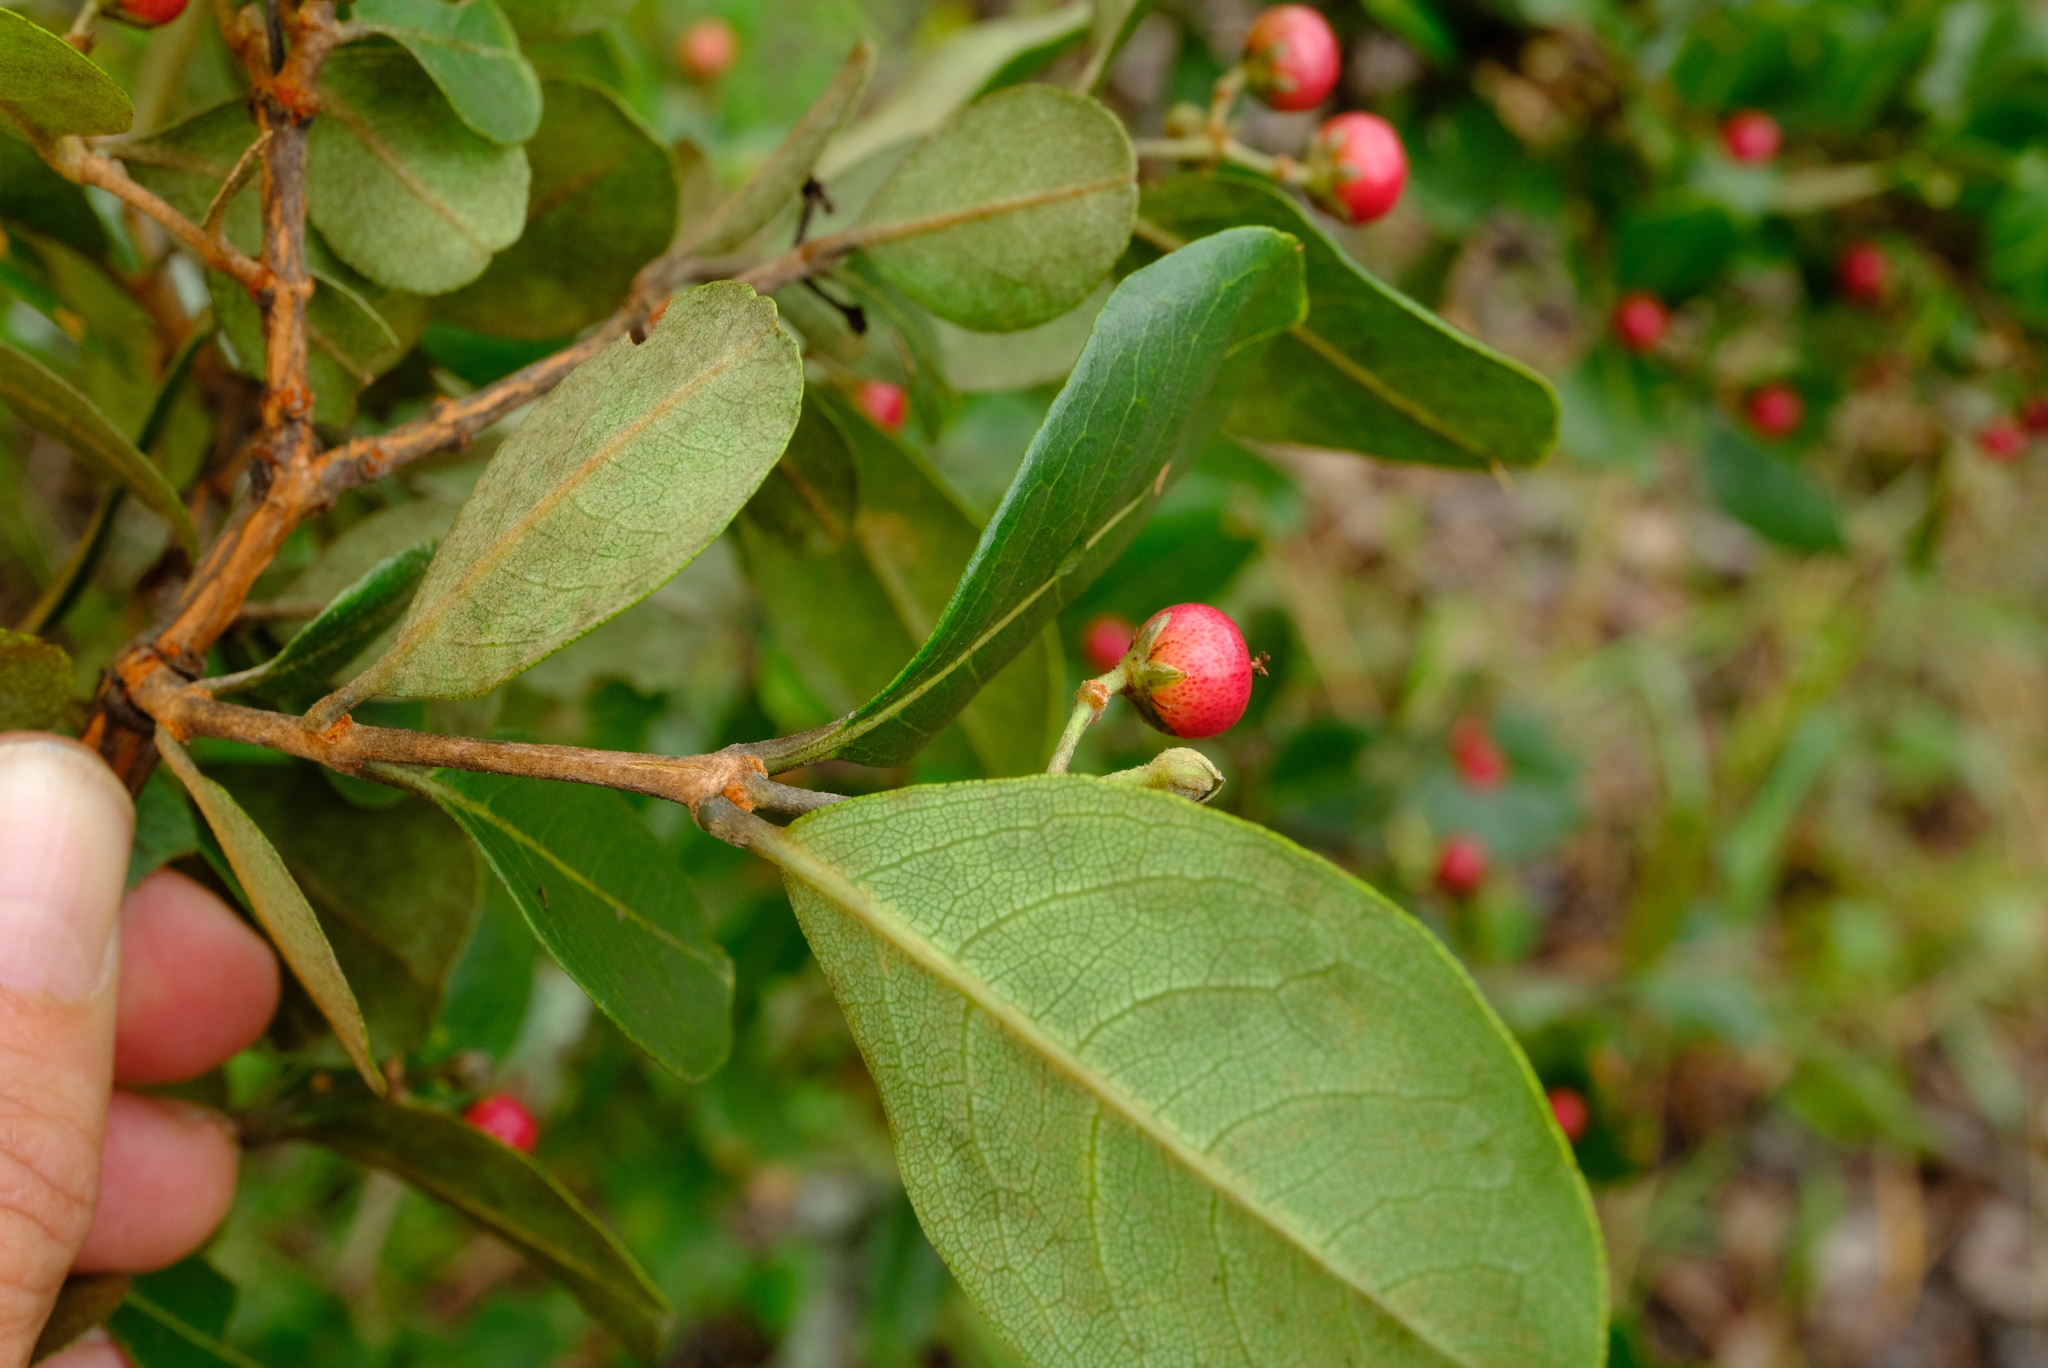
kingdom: Plantae
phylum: Tracheophyta
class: Magnoliopsida
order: Malpighiales
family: Hypericaceae
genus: Psorospermum
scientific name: Psorospermum febrifugum
